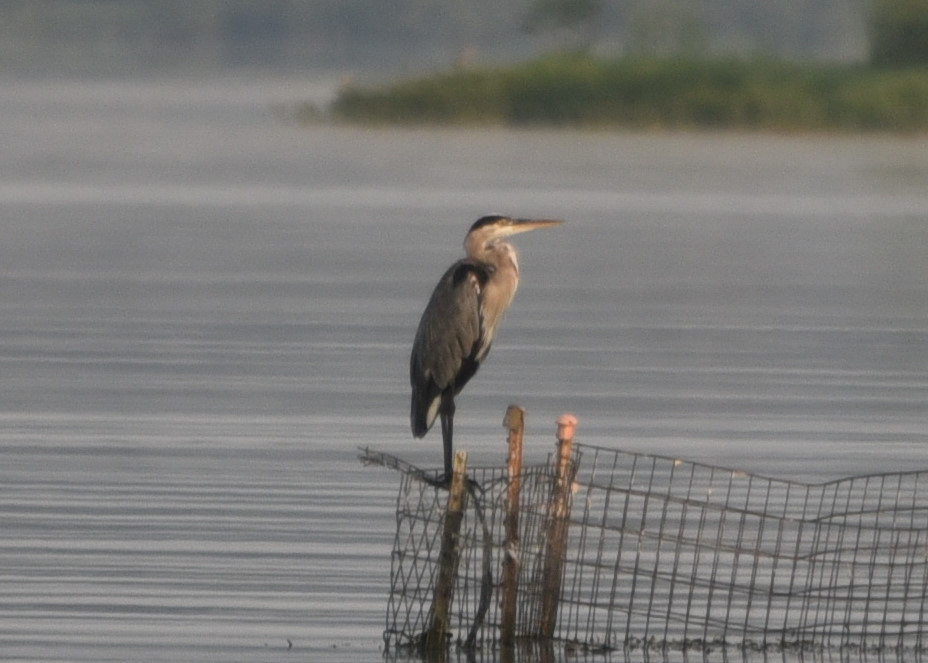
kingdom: Animalia
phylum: Chordata
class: Aves
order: Pelecaniformes
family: Ardeidae
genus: Ardea
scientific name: Ardea herodias
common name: Great blue heron
